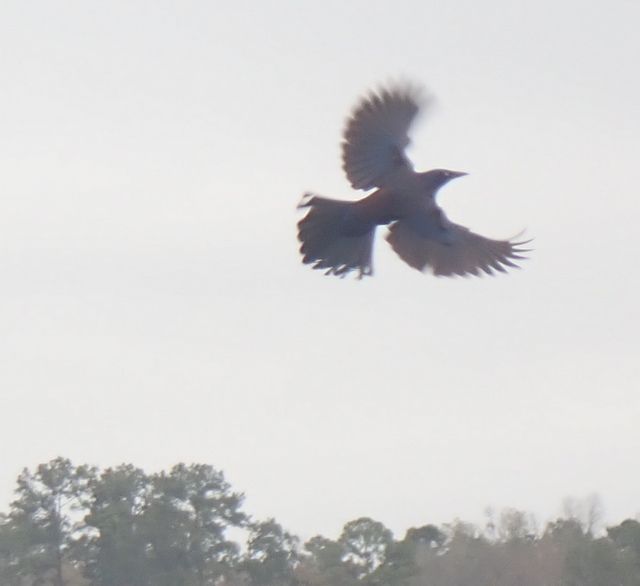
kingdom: Animalia
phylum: Chordata
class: Aves
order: Passeriformes
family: Icteridae
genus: Quiscalus
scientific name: Quiscalus major
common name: Boat-tailed grackle
